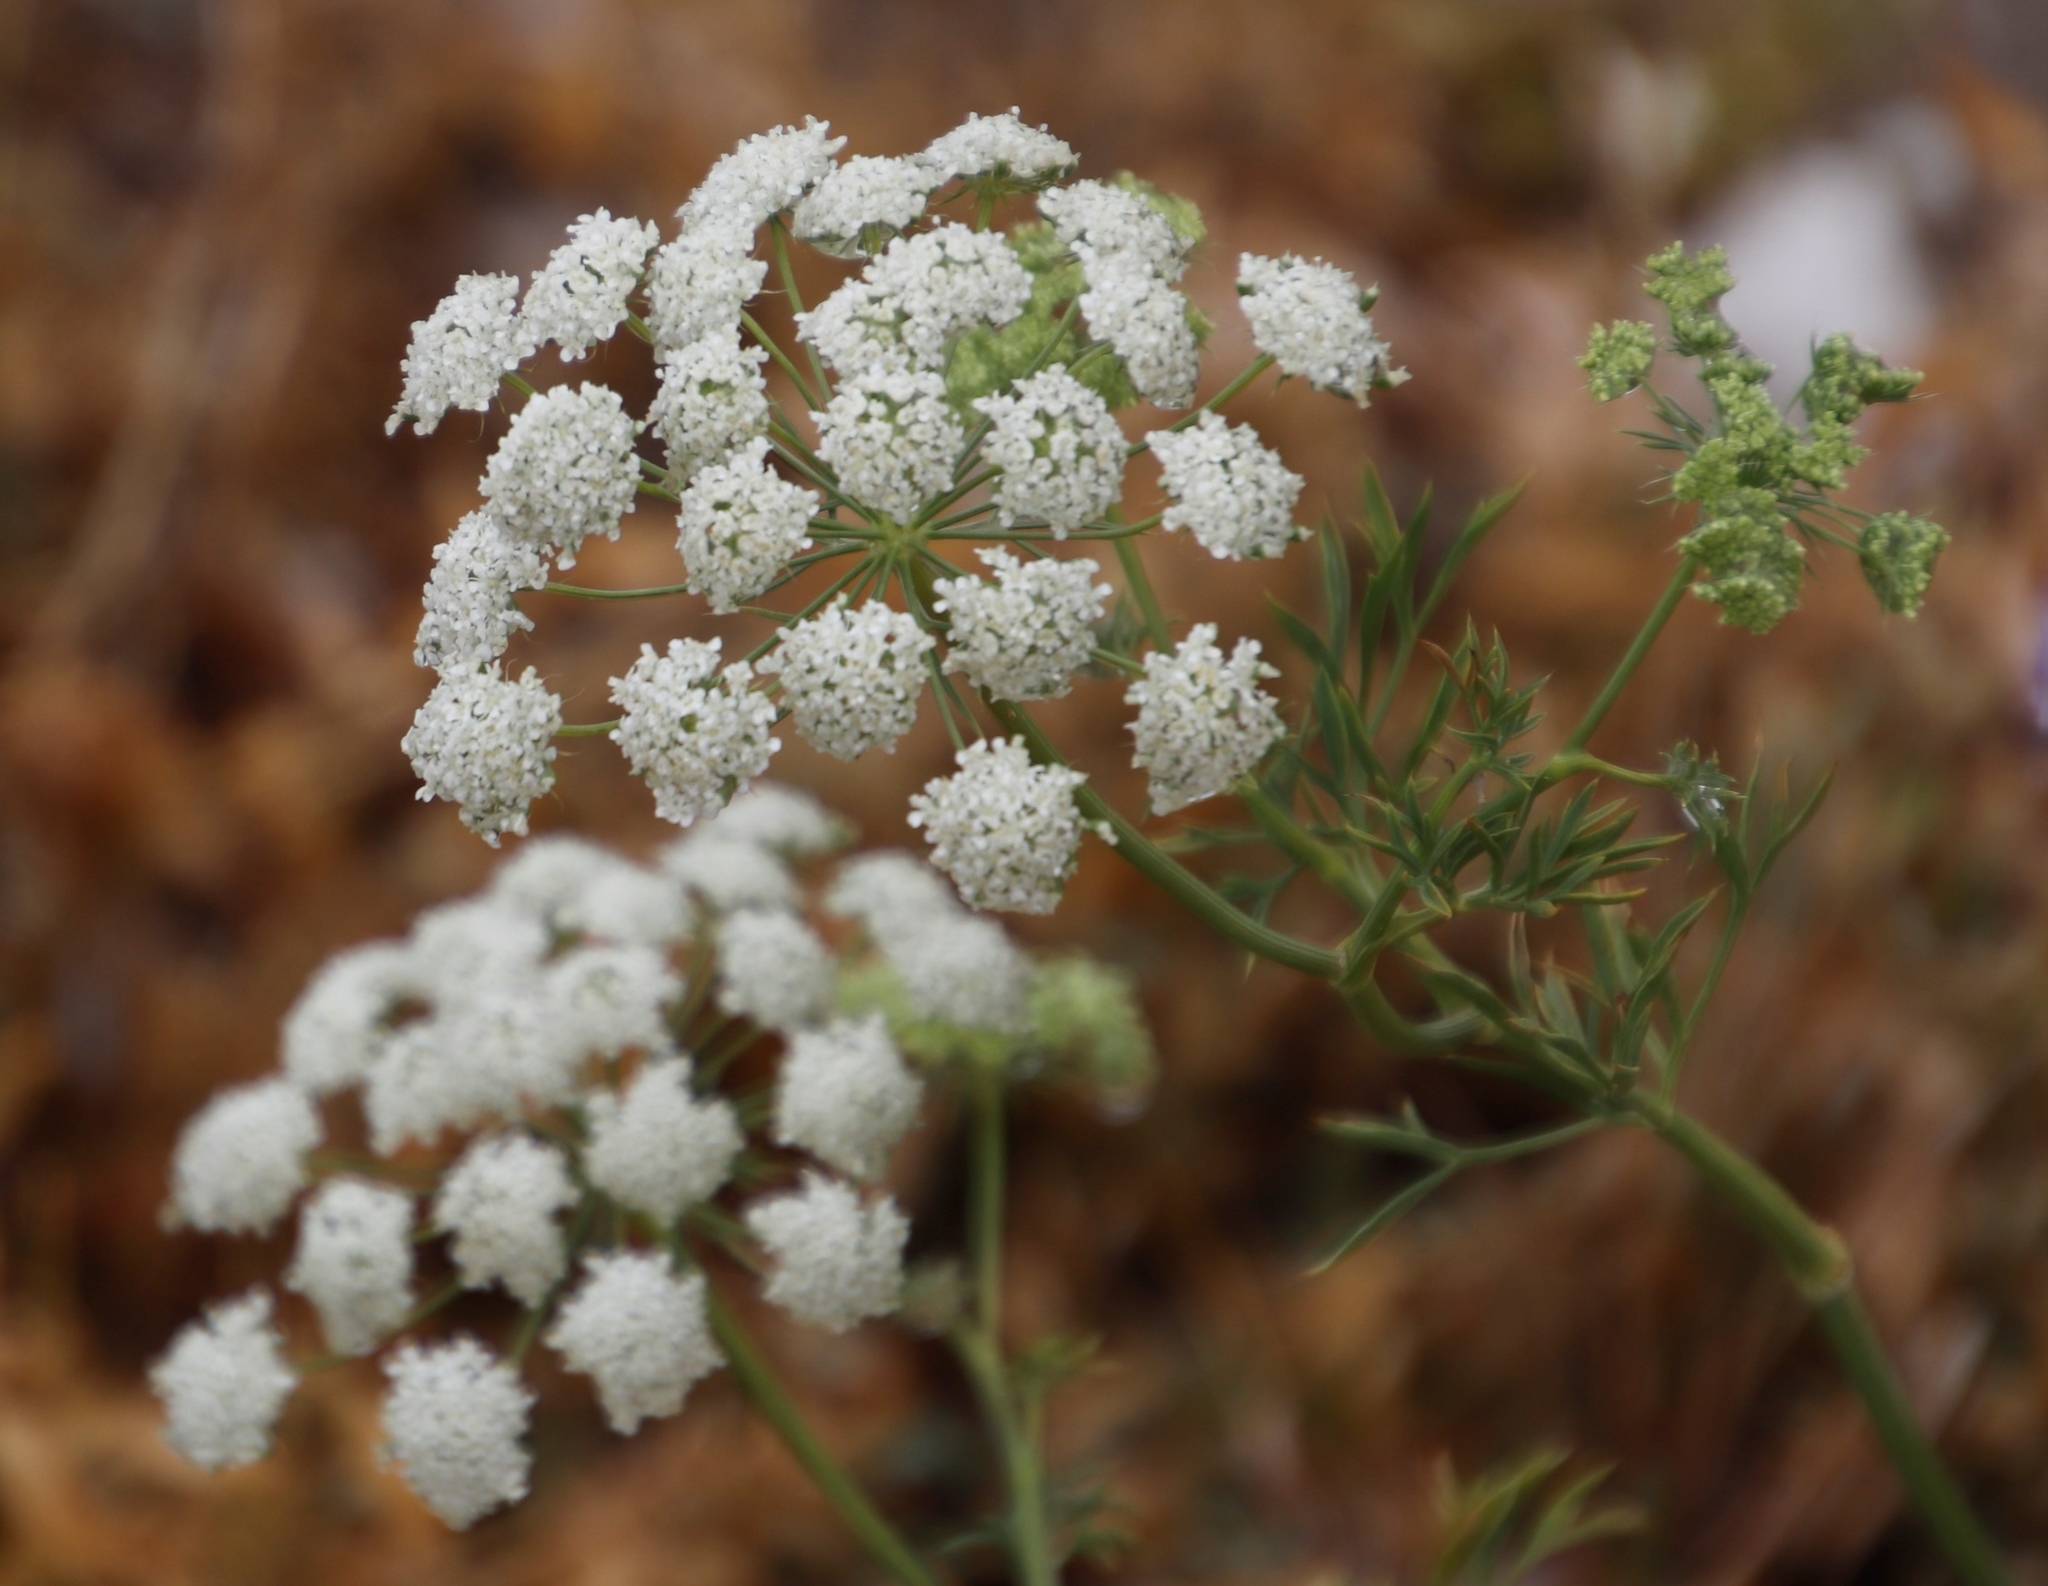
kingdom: Plantae
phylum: Tracheophyta
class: Magnoliopsida
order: Apiales
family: Apiaceae
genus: Ammi
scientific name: Ammi majus
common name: Bullwort
